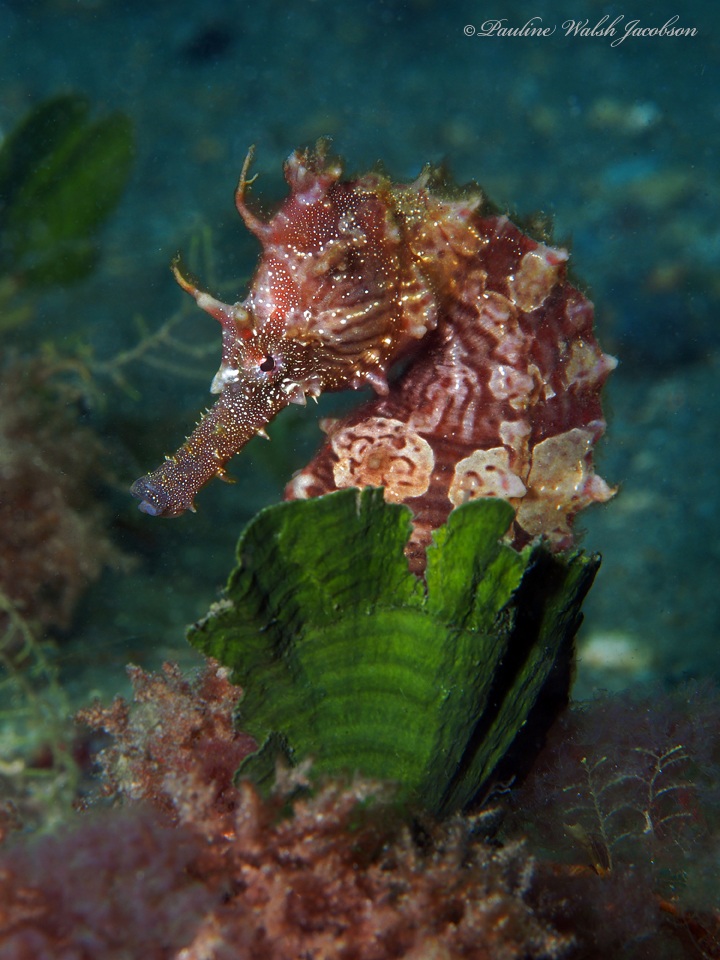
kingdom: Animalia
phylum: Chordata
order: Syngnathiformes
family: Syngnathidae
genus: Hippocampus
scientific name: Hippocampus erectus
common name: Lined seahorse
